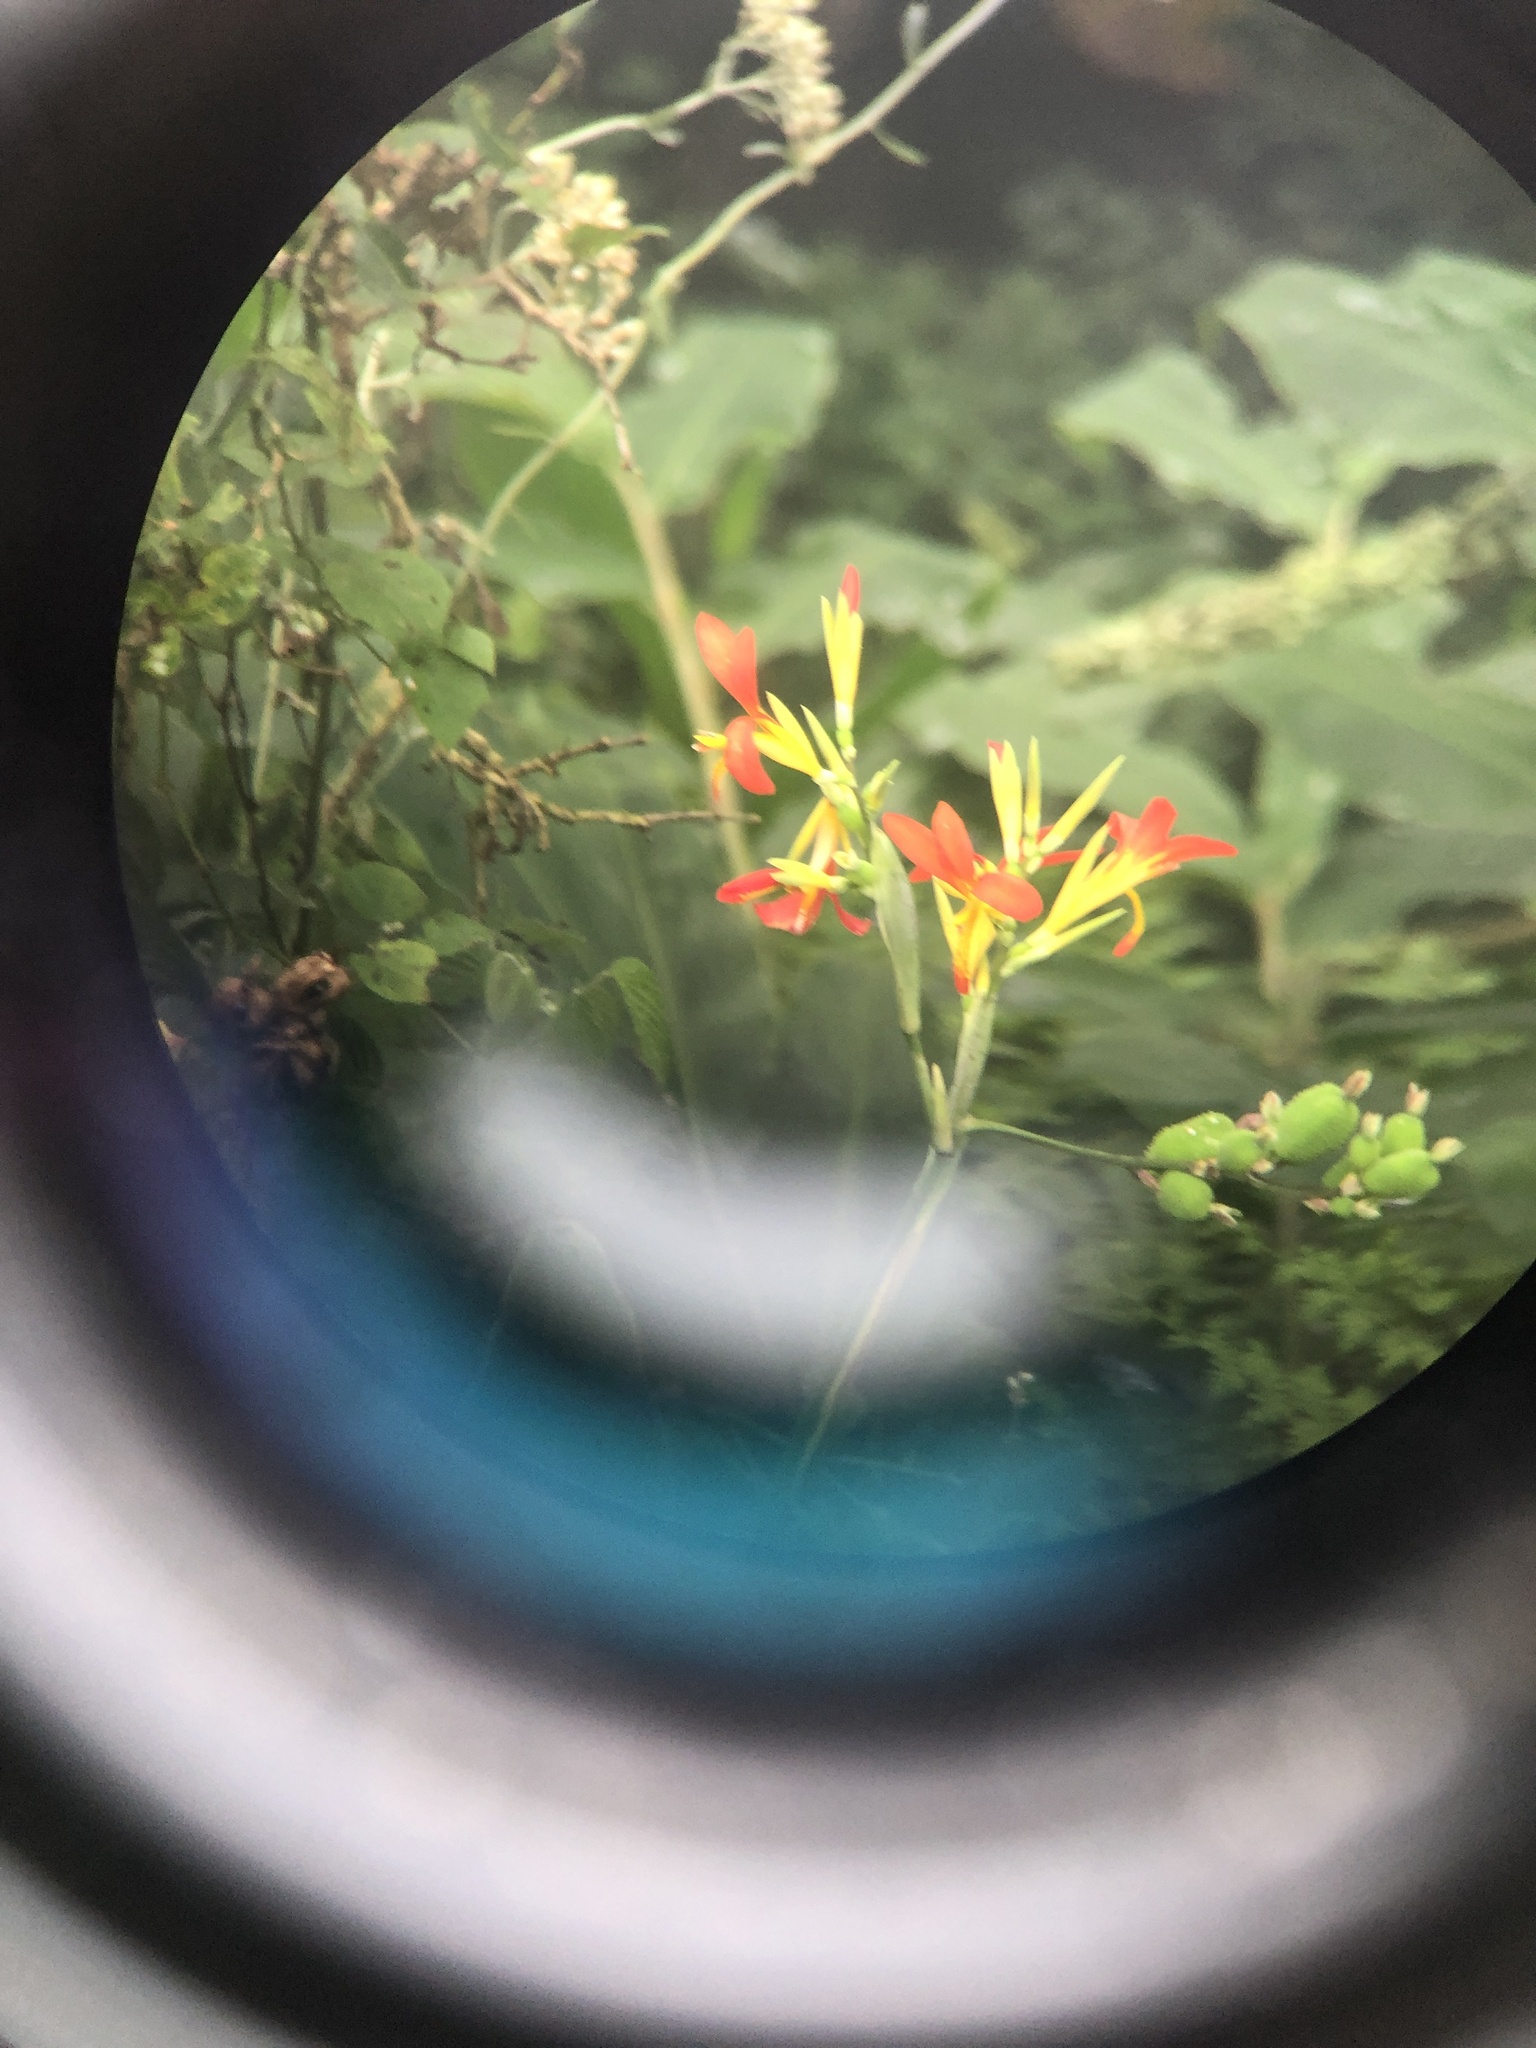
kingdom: Plantae
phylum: Tracheophyta
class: Liliopsida
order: Zingiberales
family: Cannaceae
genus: Canna
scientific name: Canna indica
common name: Indian shot
